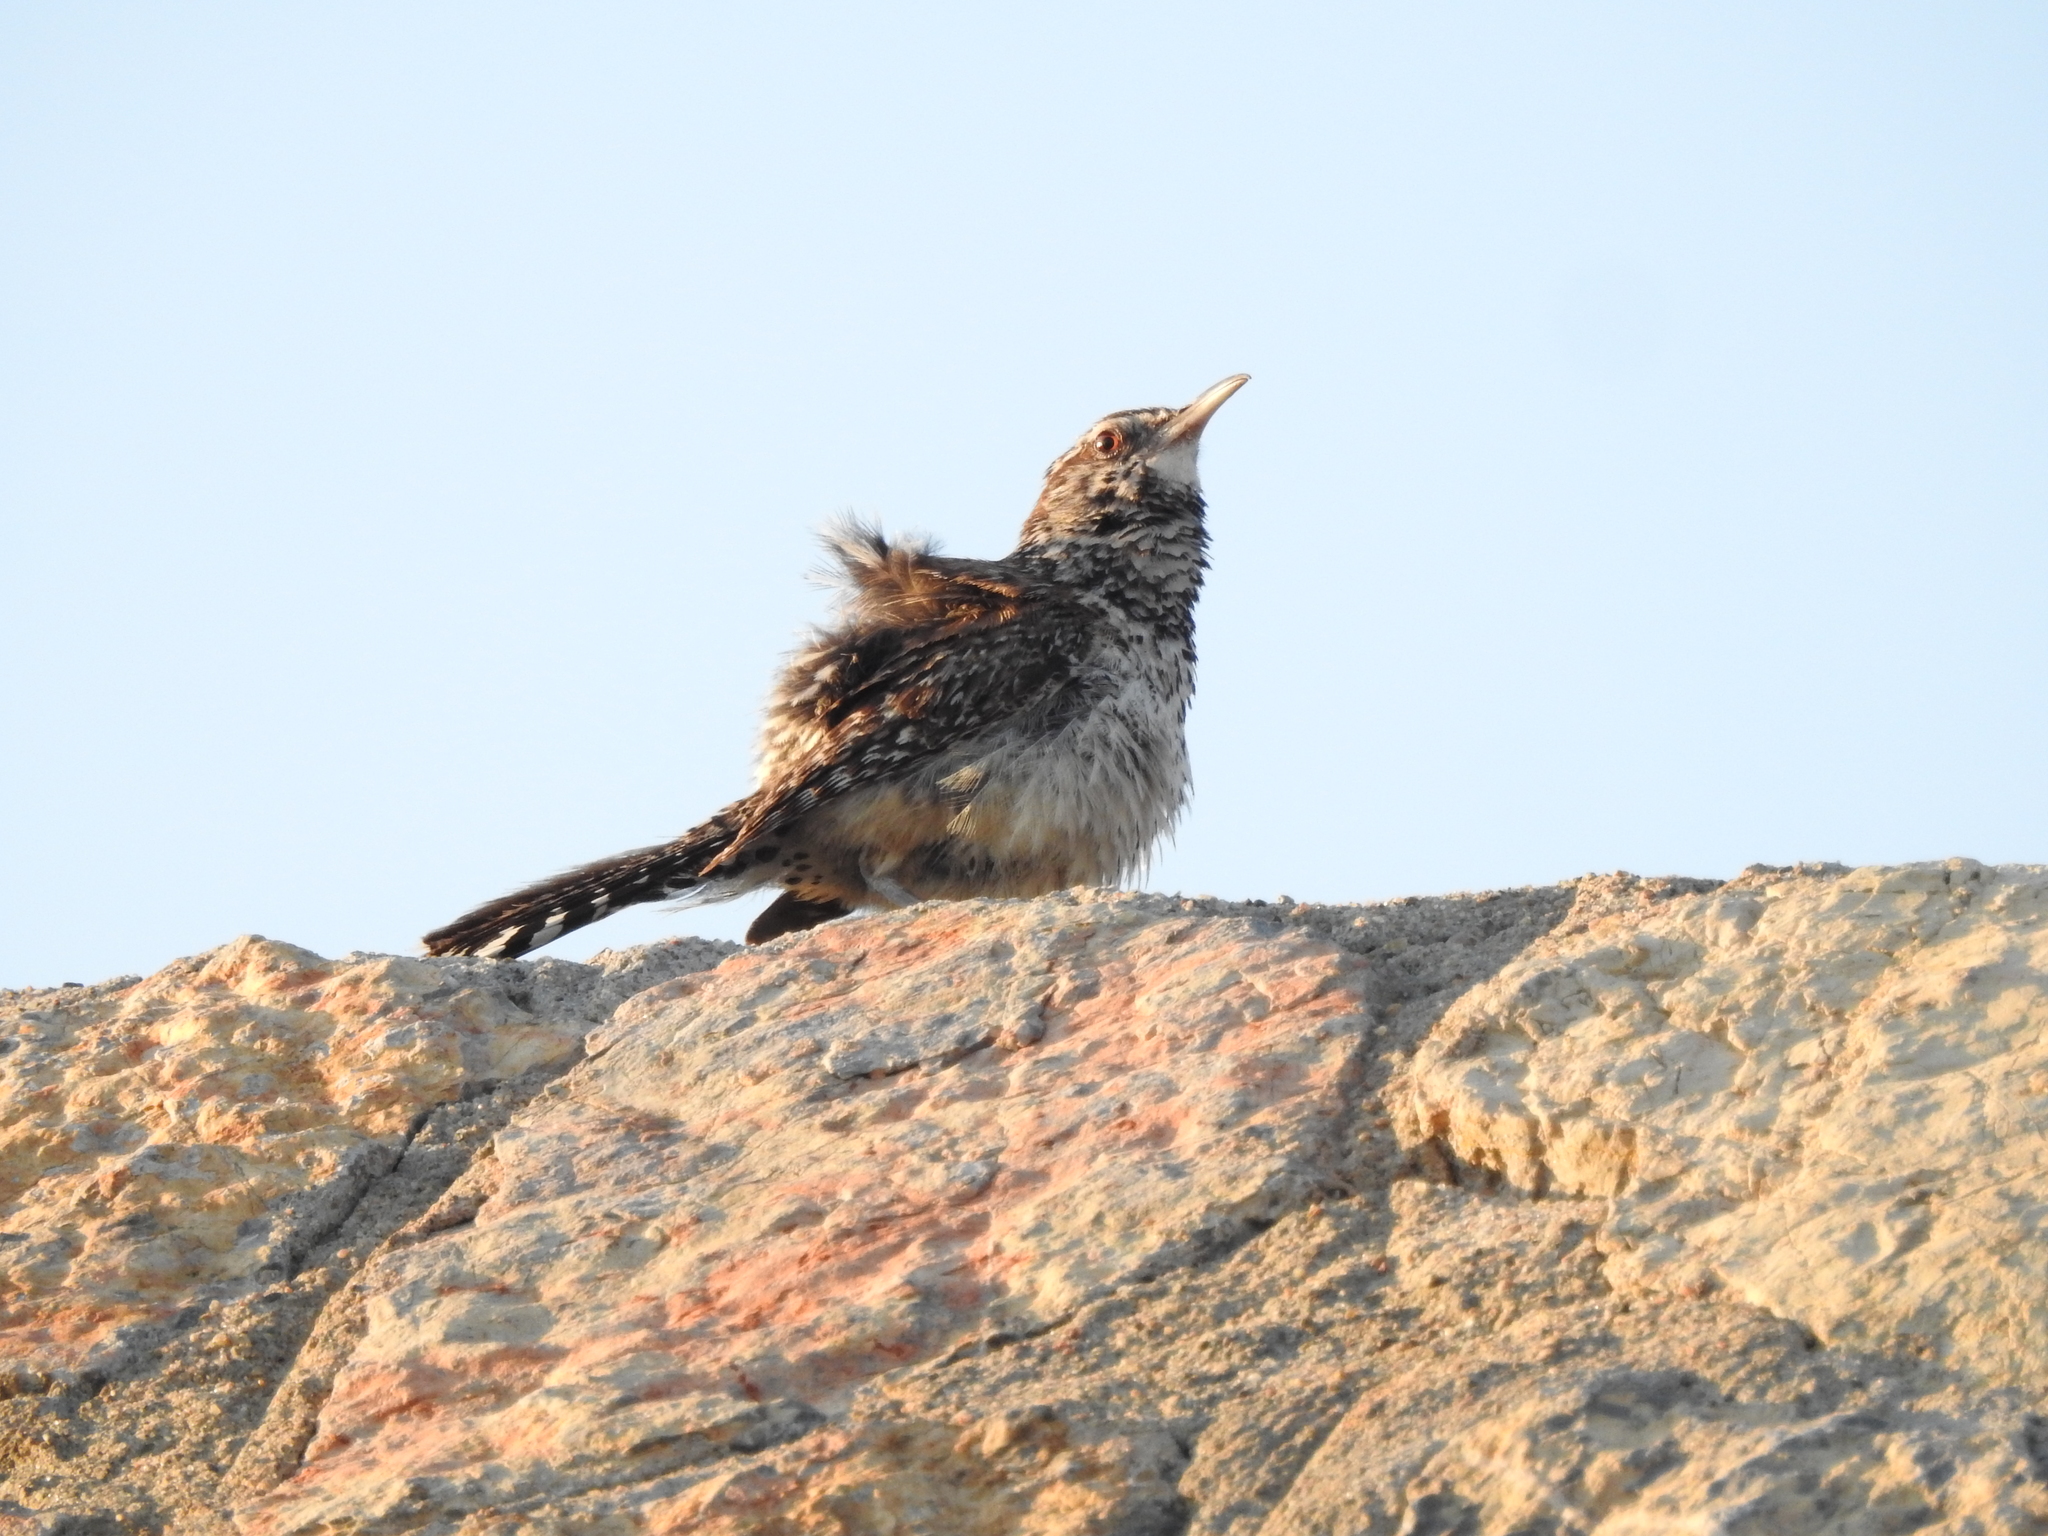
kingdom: Animalia
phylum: Chordata
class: Aves
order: Passeriformes
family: Troglodytidae
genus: Campylorhynchus
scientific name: Campylorhynchus brunneicapillus
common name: Cactus wren
